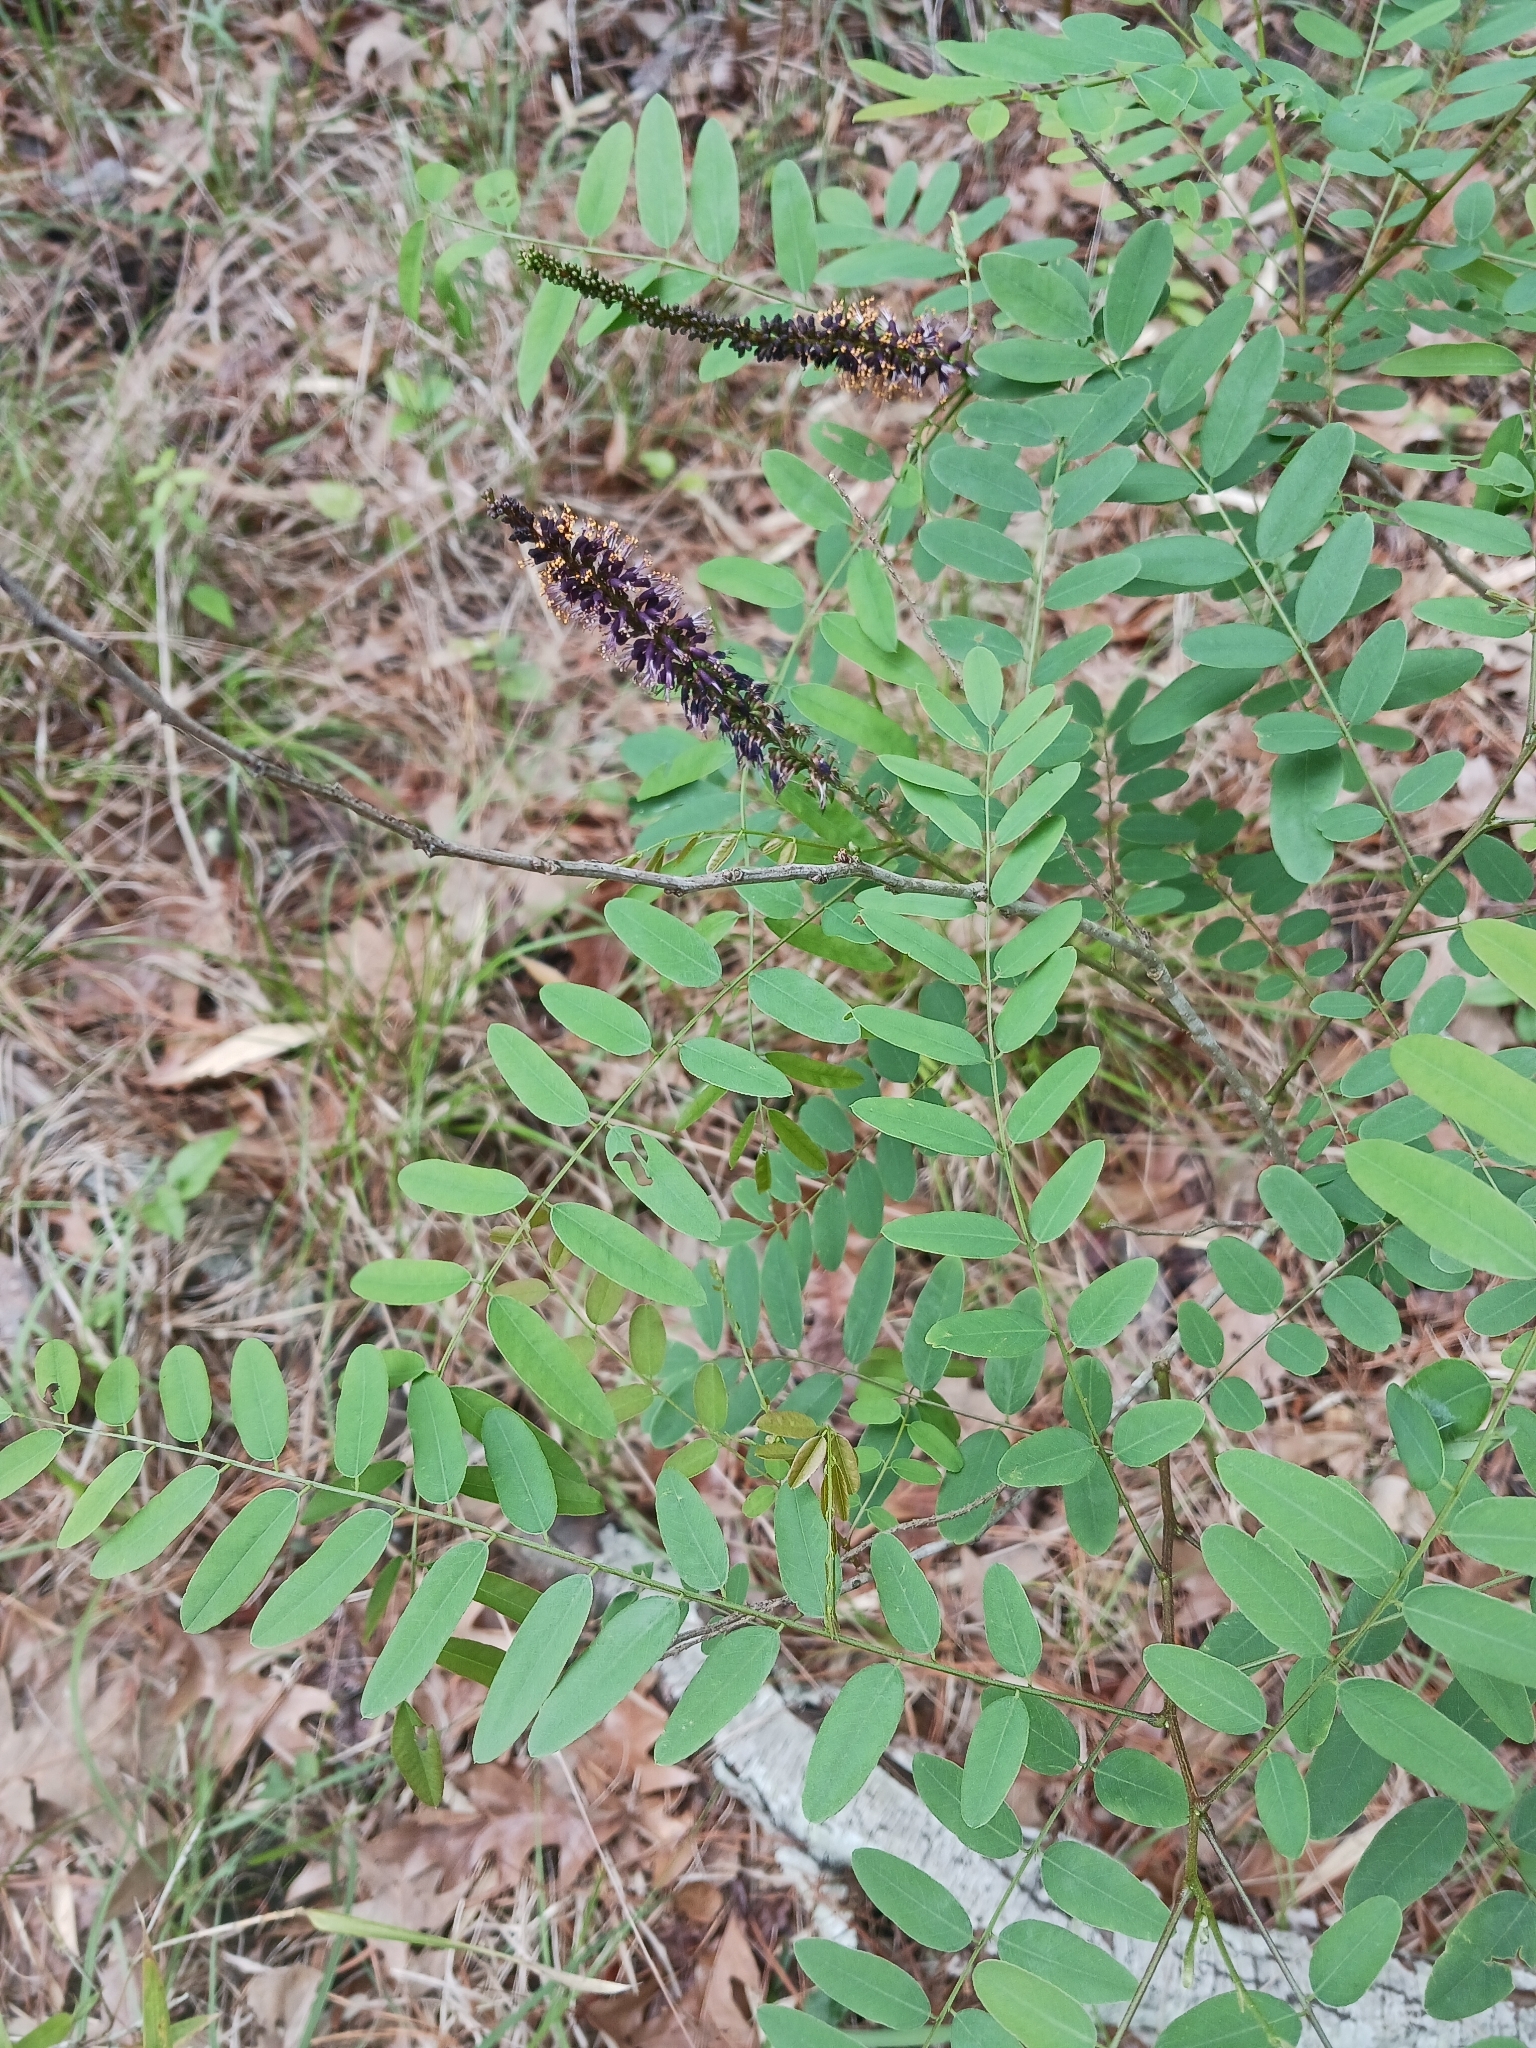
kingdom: Plantae
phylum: Tracheophyta
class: Magnoliopsida
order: Fabales
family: Fabaceae
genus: Amorpha
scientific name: Amorpha fruticosa
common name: False indigo
